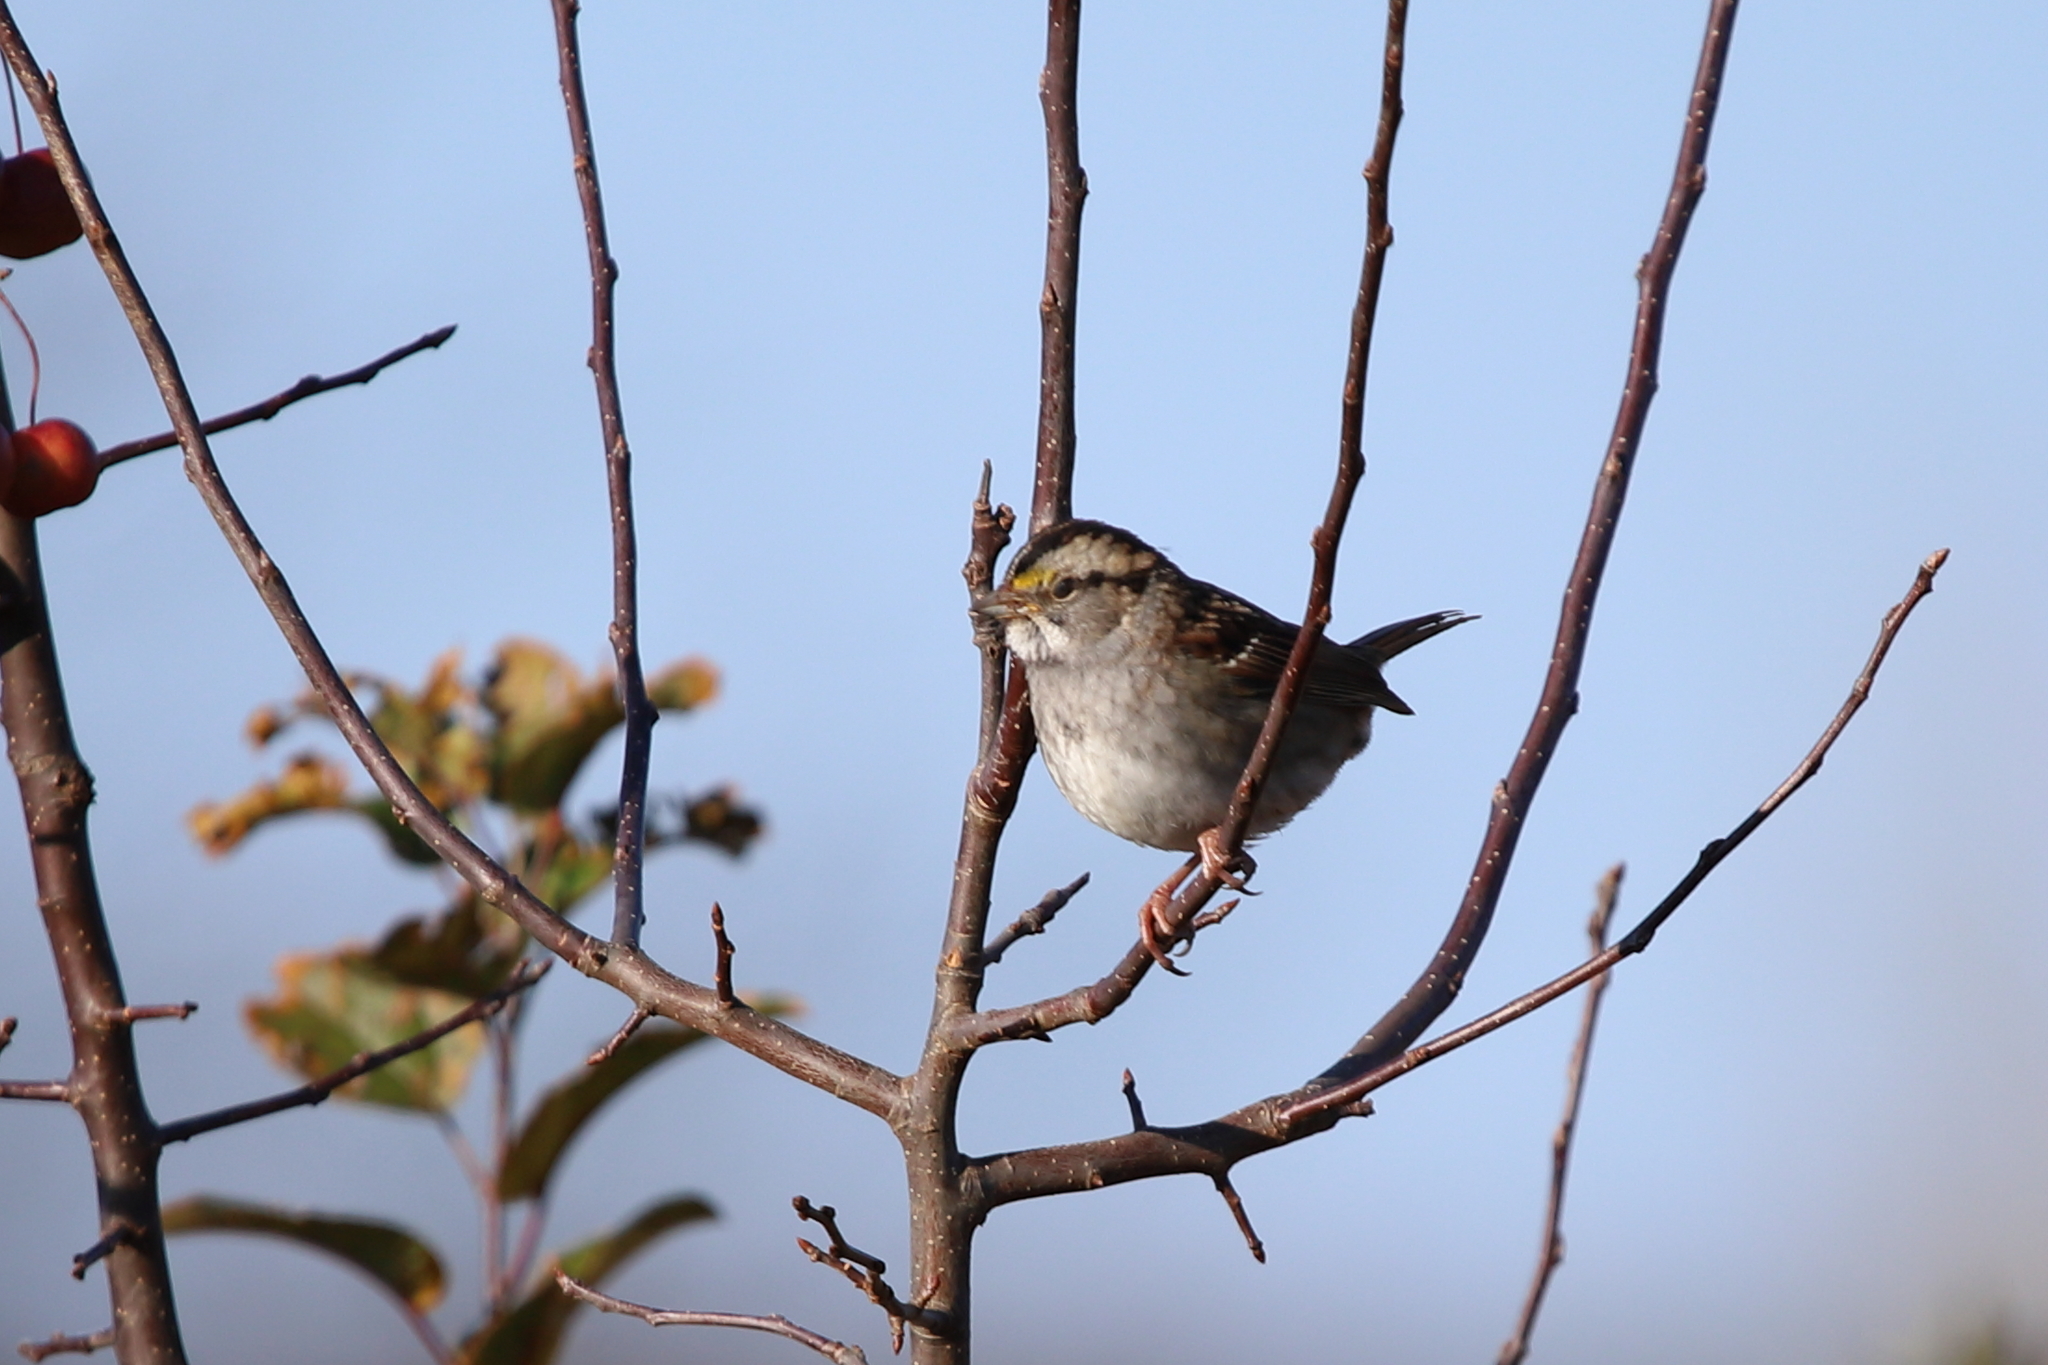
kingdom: Animalia
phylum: Chordata
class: Aves
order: Passeriformes
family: Passerellidae
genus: Zonotrichia
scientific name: Zonotrichia albicollis
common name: White-throated sparrow
